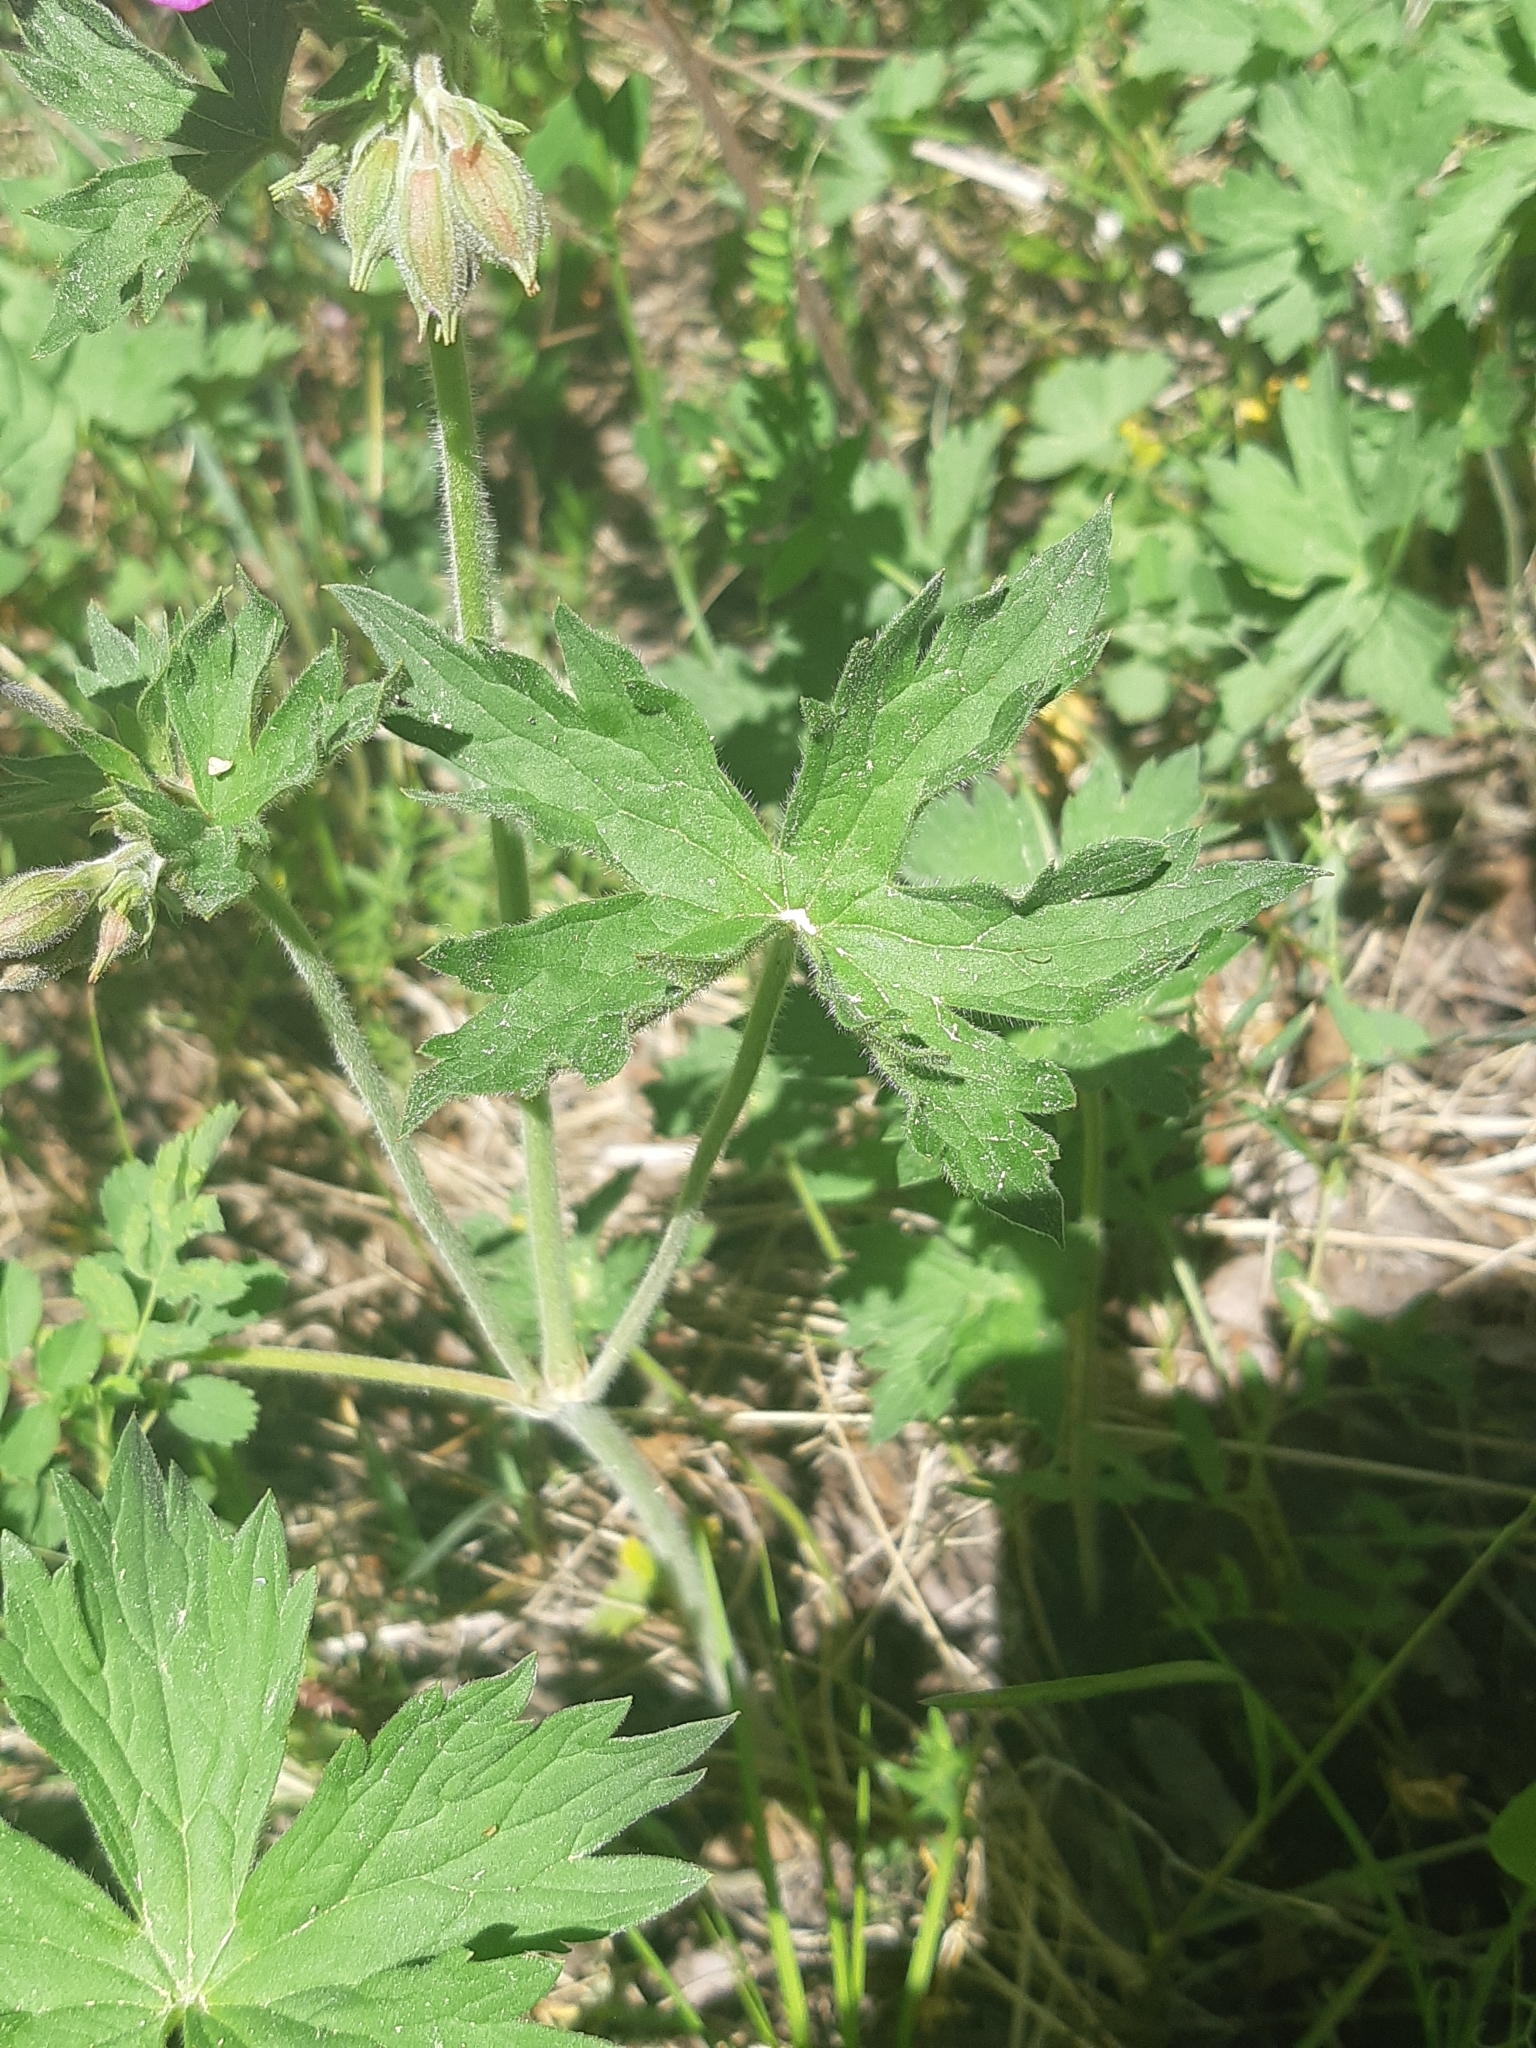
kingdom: Plantae
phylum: Tracheophyta
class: Magnoliopsida
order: Geraniales
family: Geraniaceae
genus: Geranium
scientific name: Geranium viscosissimum
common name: Purple geranium
